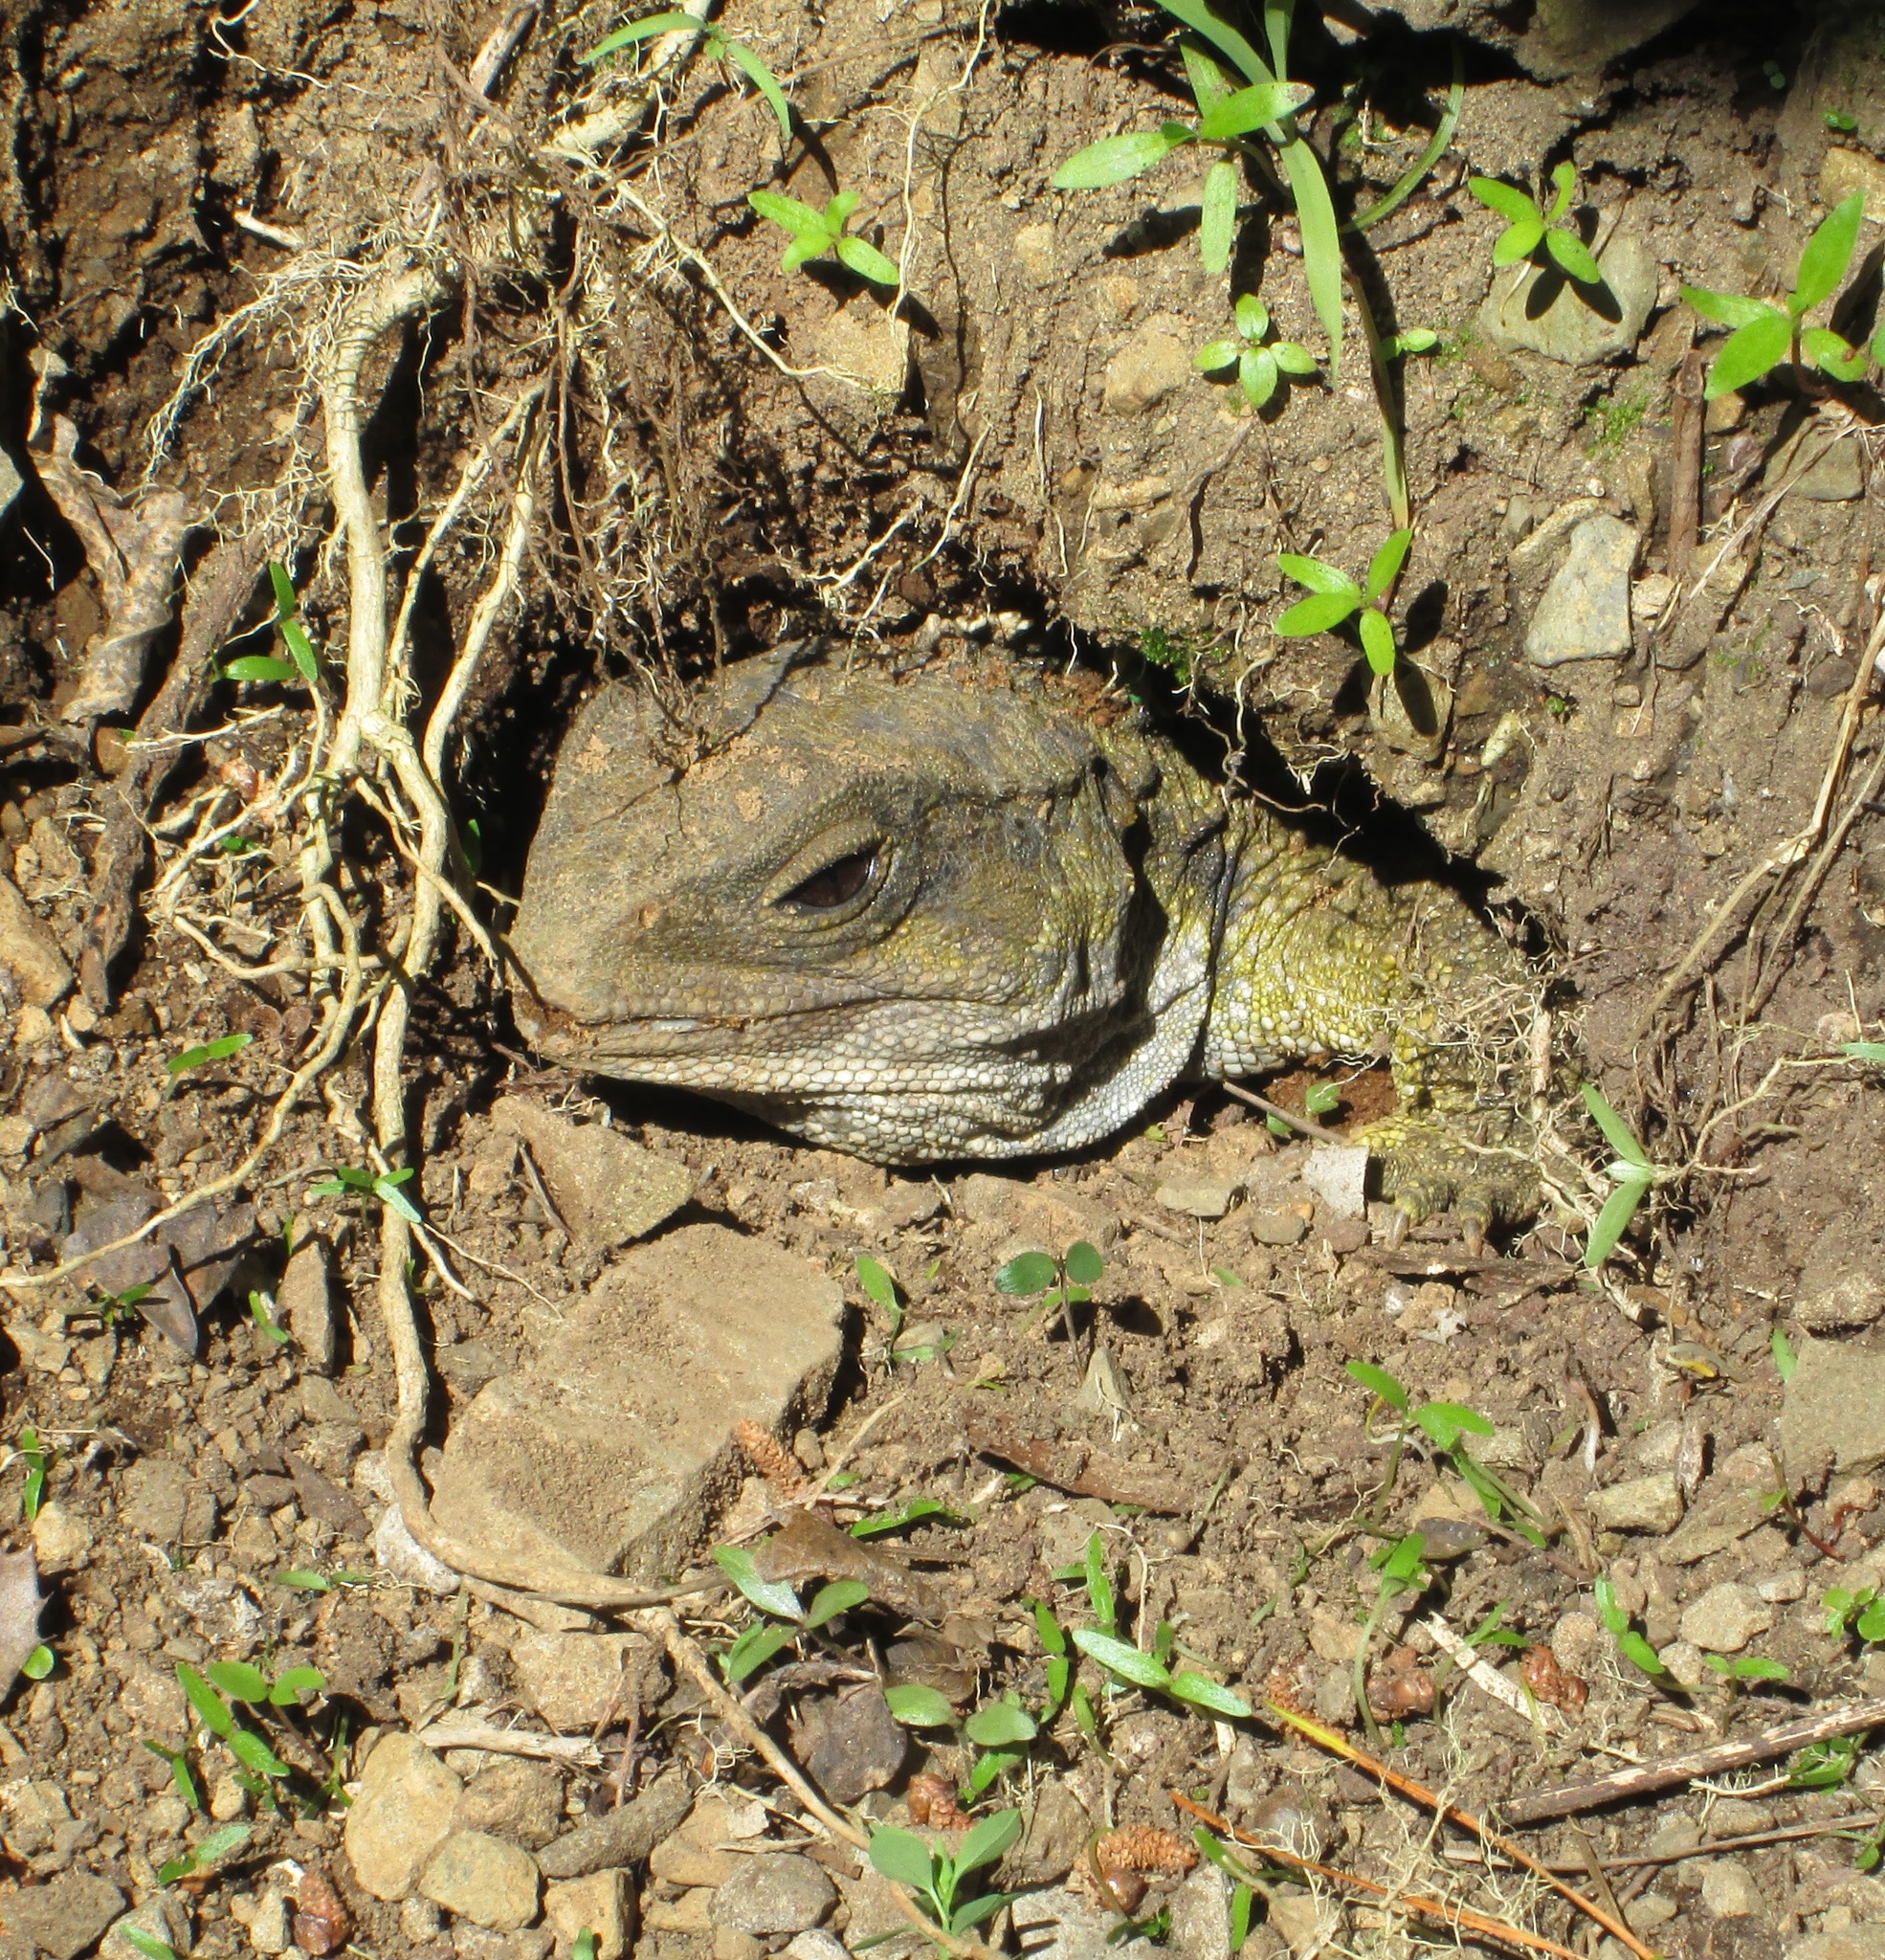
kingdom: Animalia
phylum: Chordata
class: Sphenodontia
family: Sphenodontidae
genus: Sphenodon
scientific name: Sphenodon punctatus
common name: Tuatara
